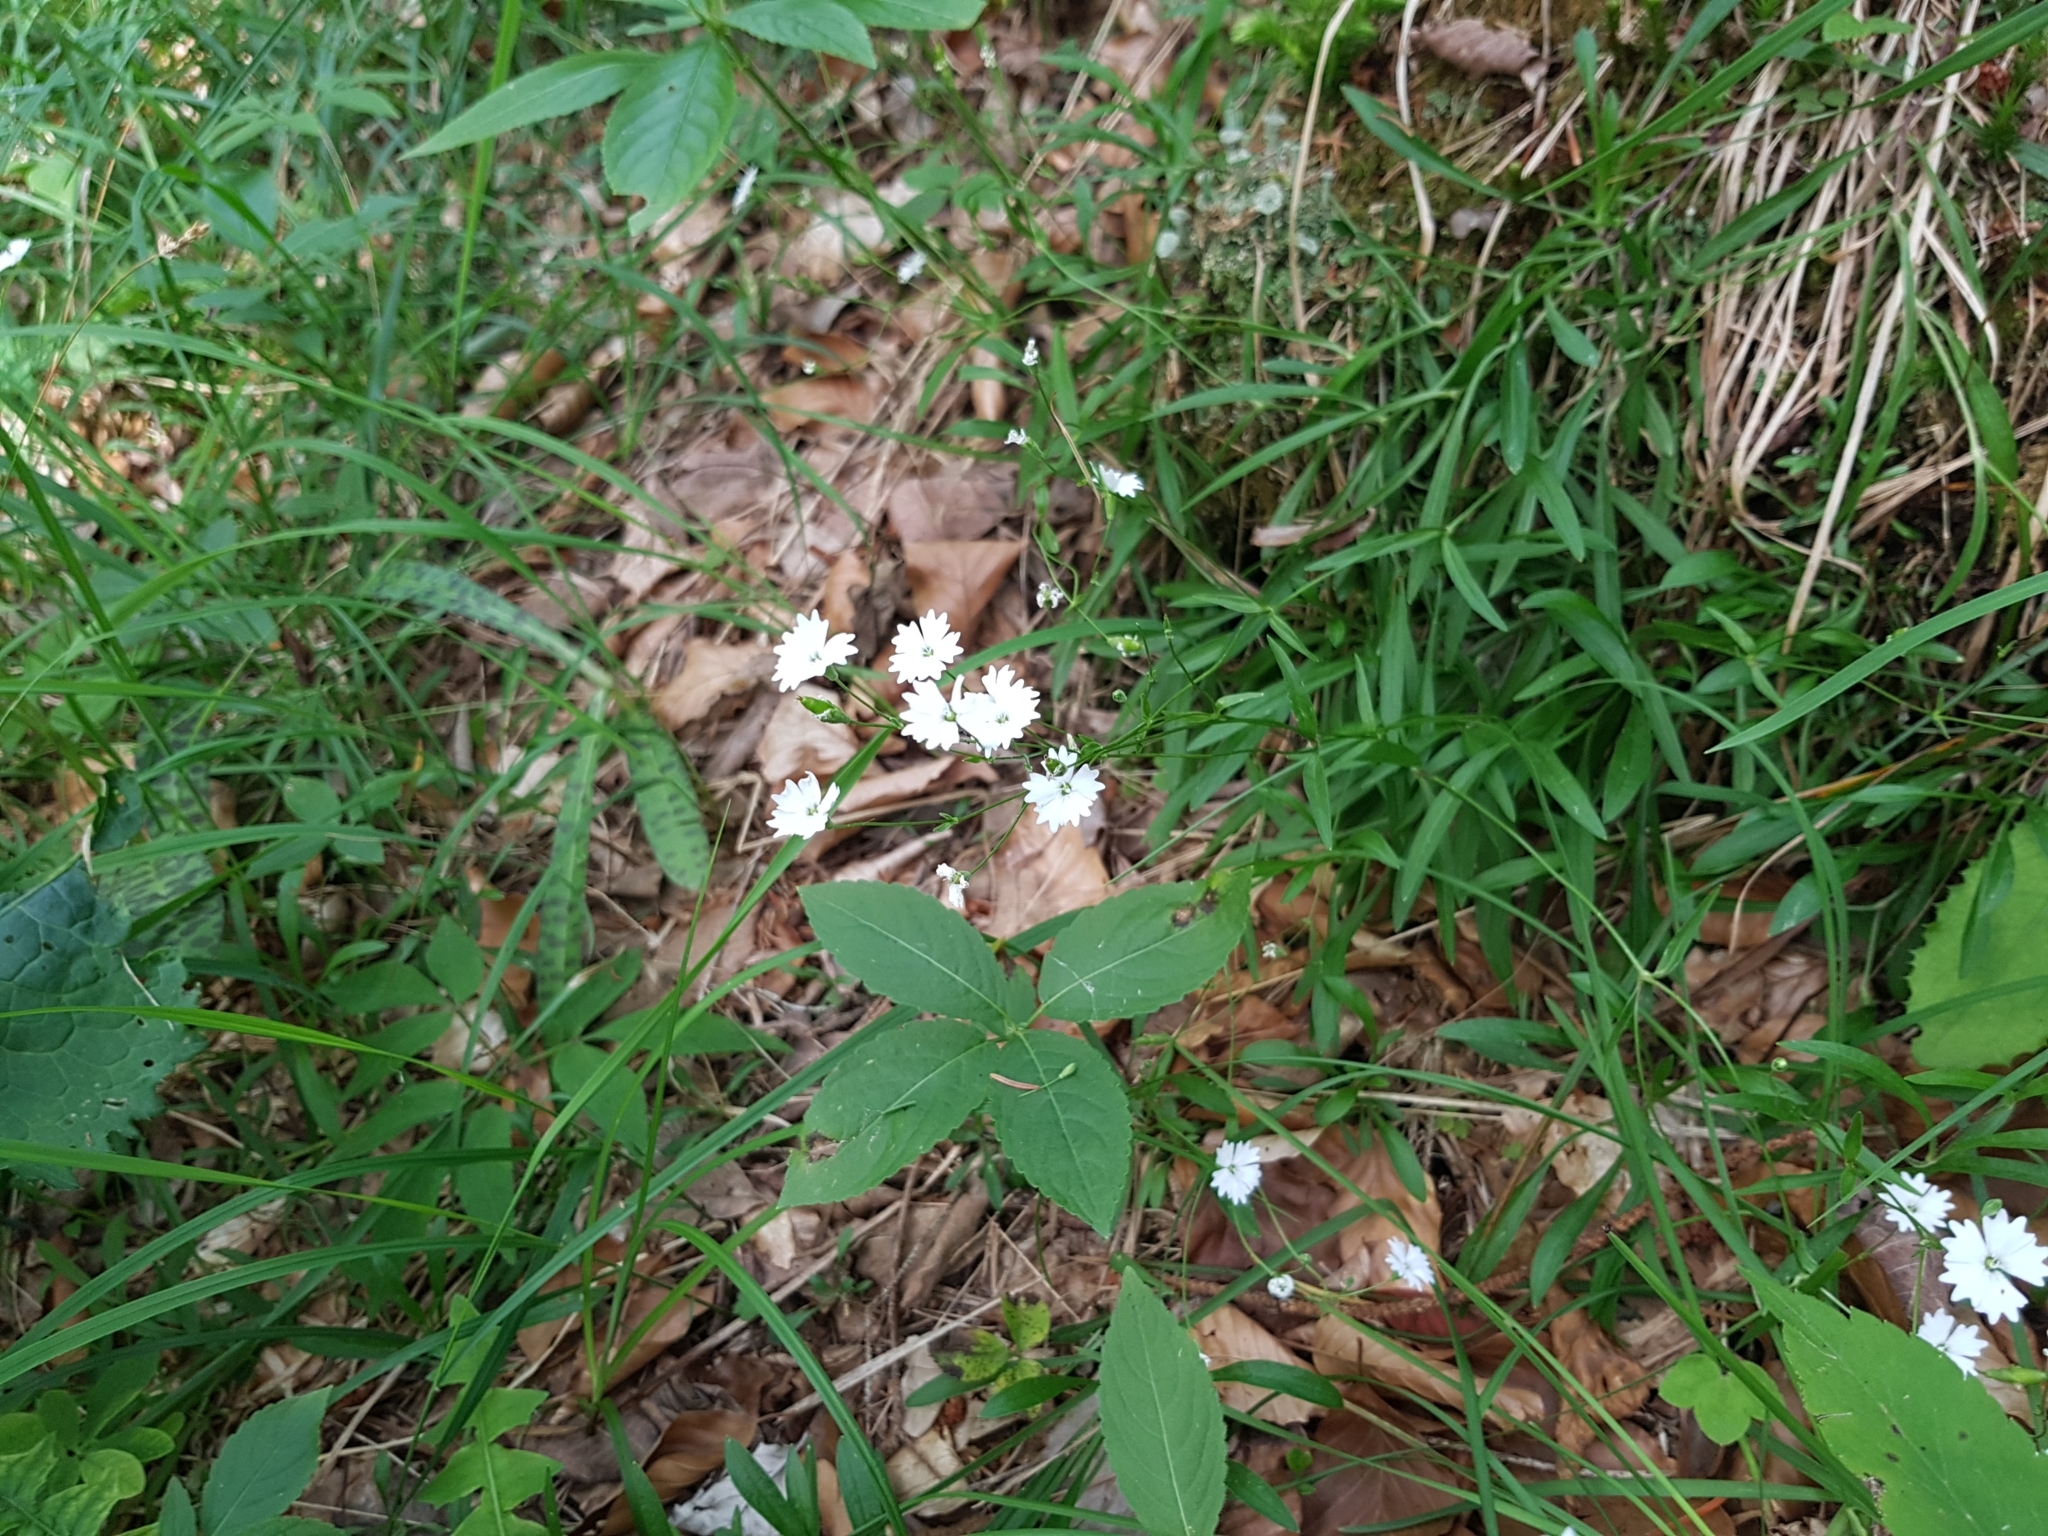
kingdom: Plantae
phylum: Tracheophyta
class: Magnoliopsida
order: Caryophyllales
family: Caryophyllaceae
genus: Heliosperma
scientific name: Heliosperma pusillum
